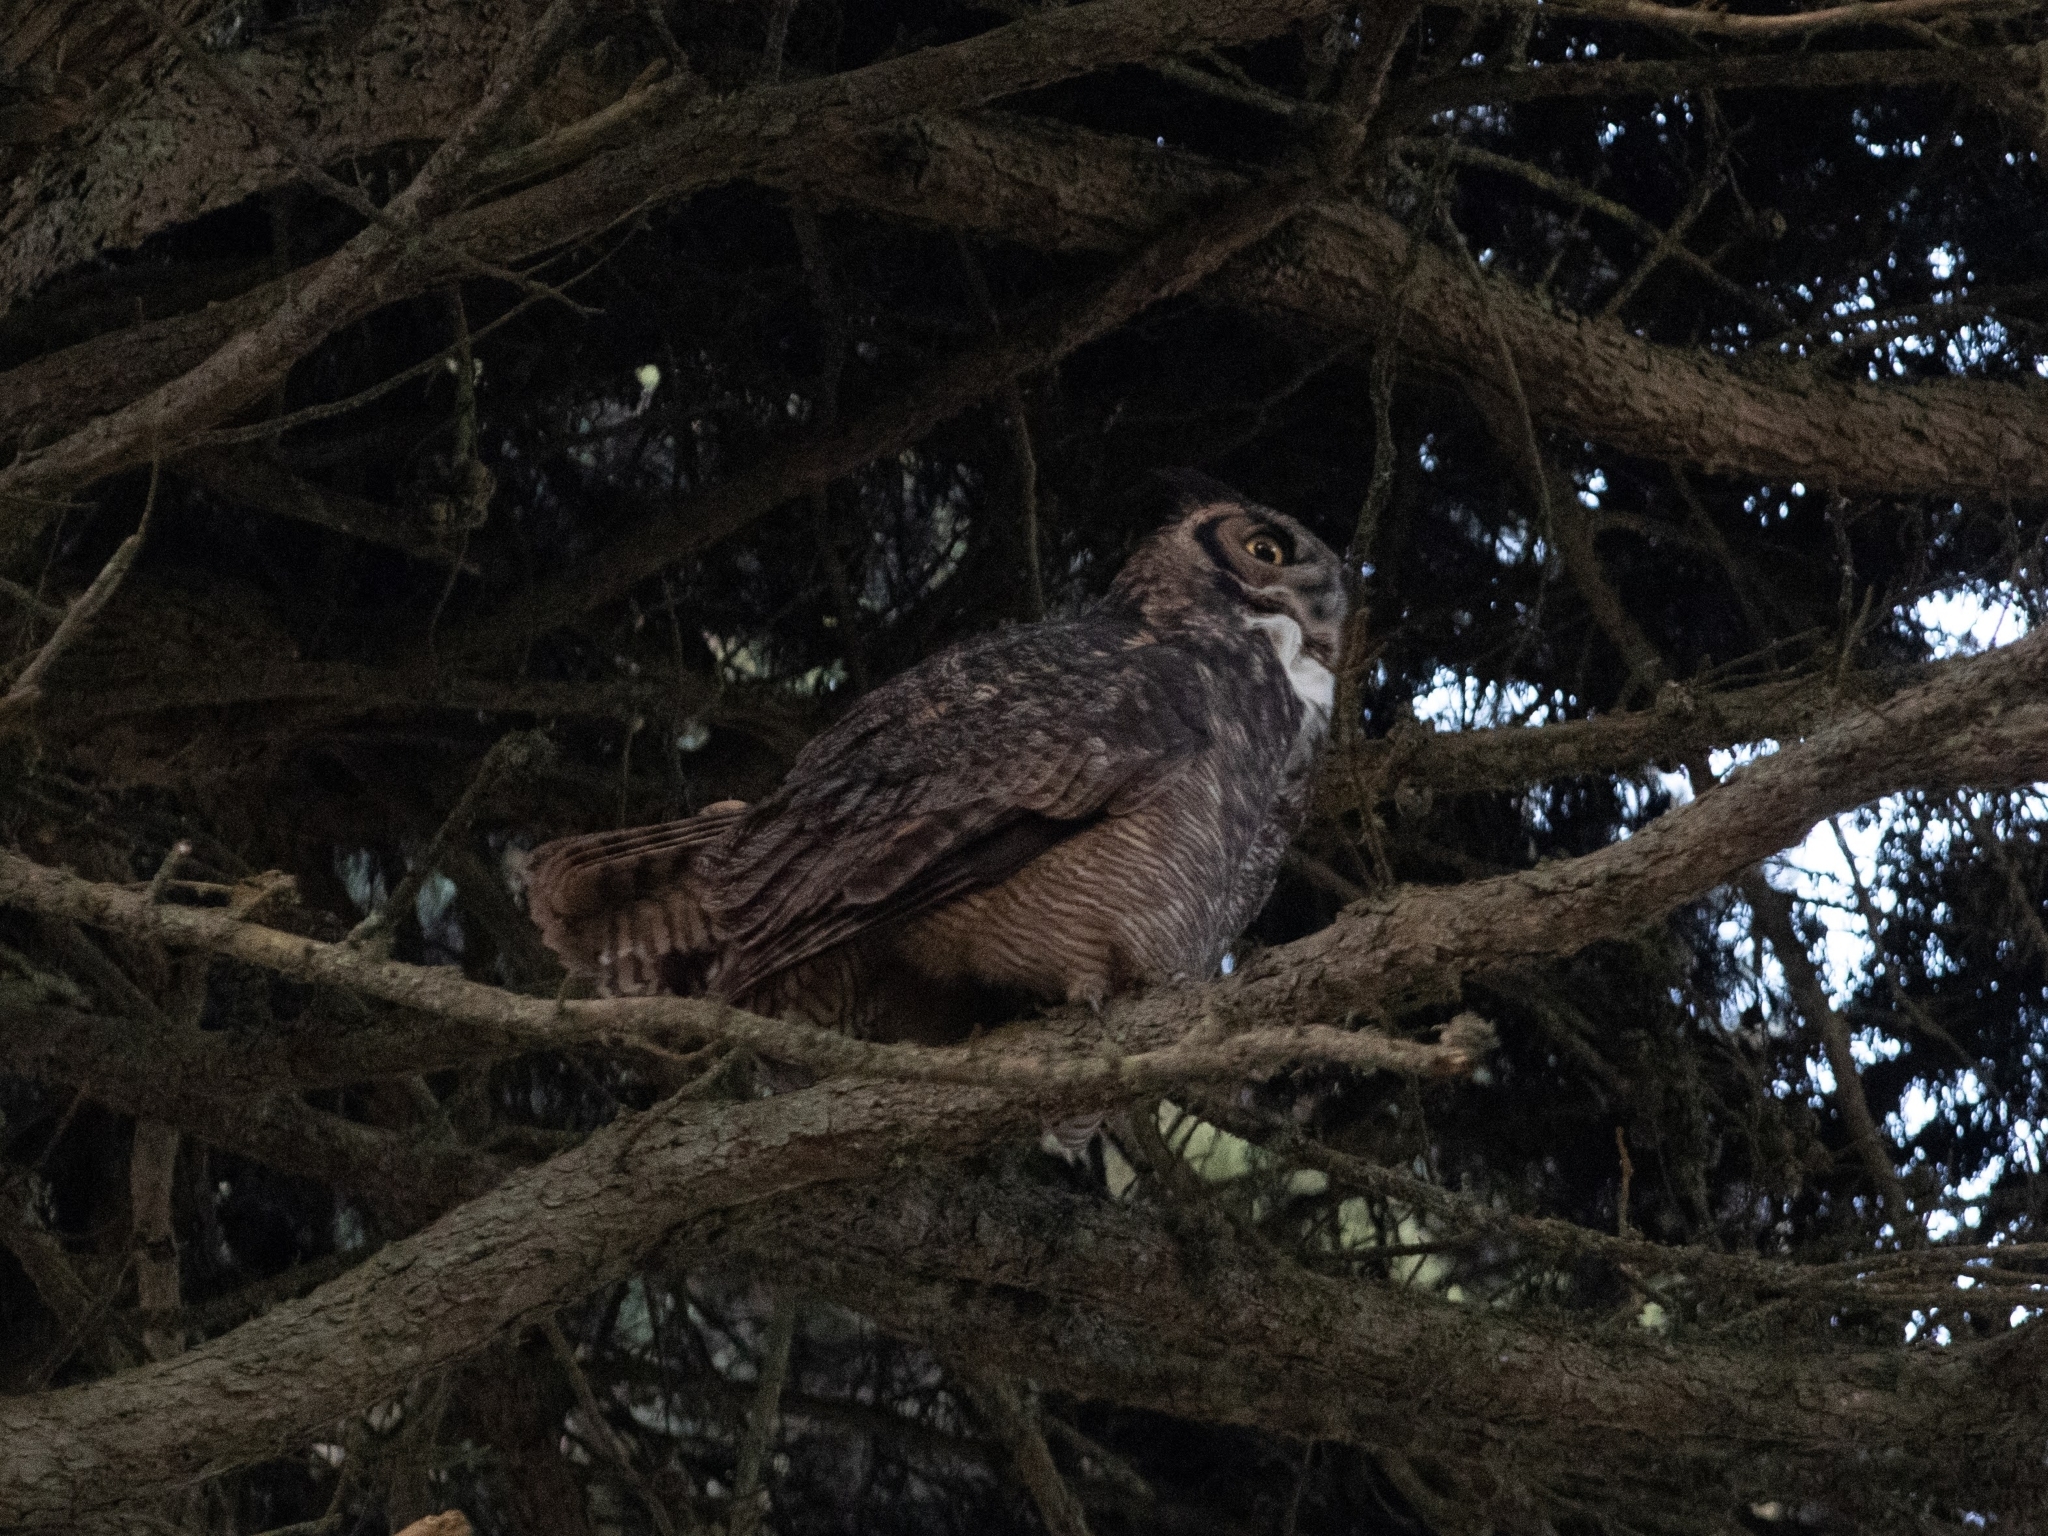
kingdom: Animalia
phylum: Chordata
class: Aves
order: Strigiformes
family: Strigidae
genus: Bubo
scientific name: Bubo virginianus
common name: Great horned owl
